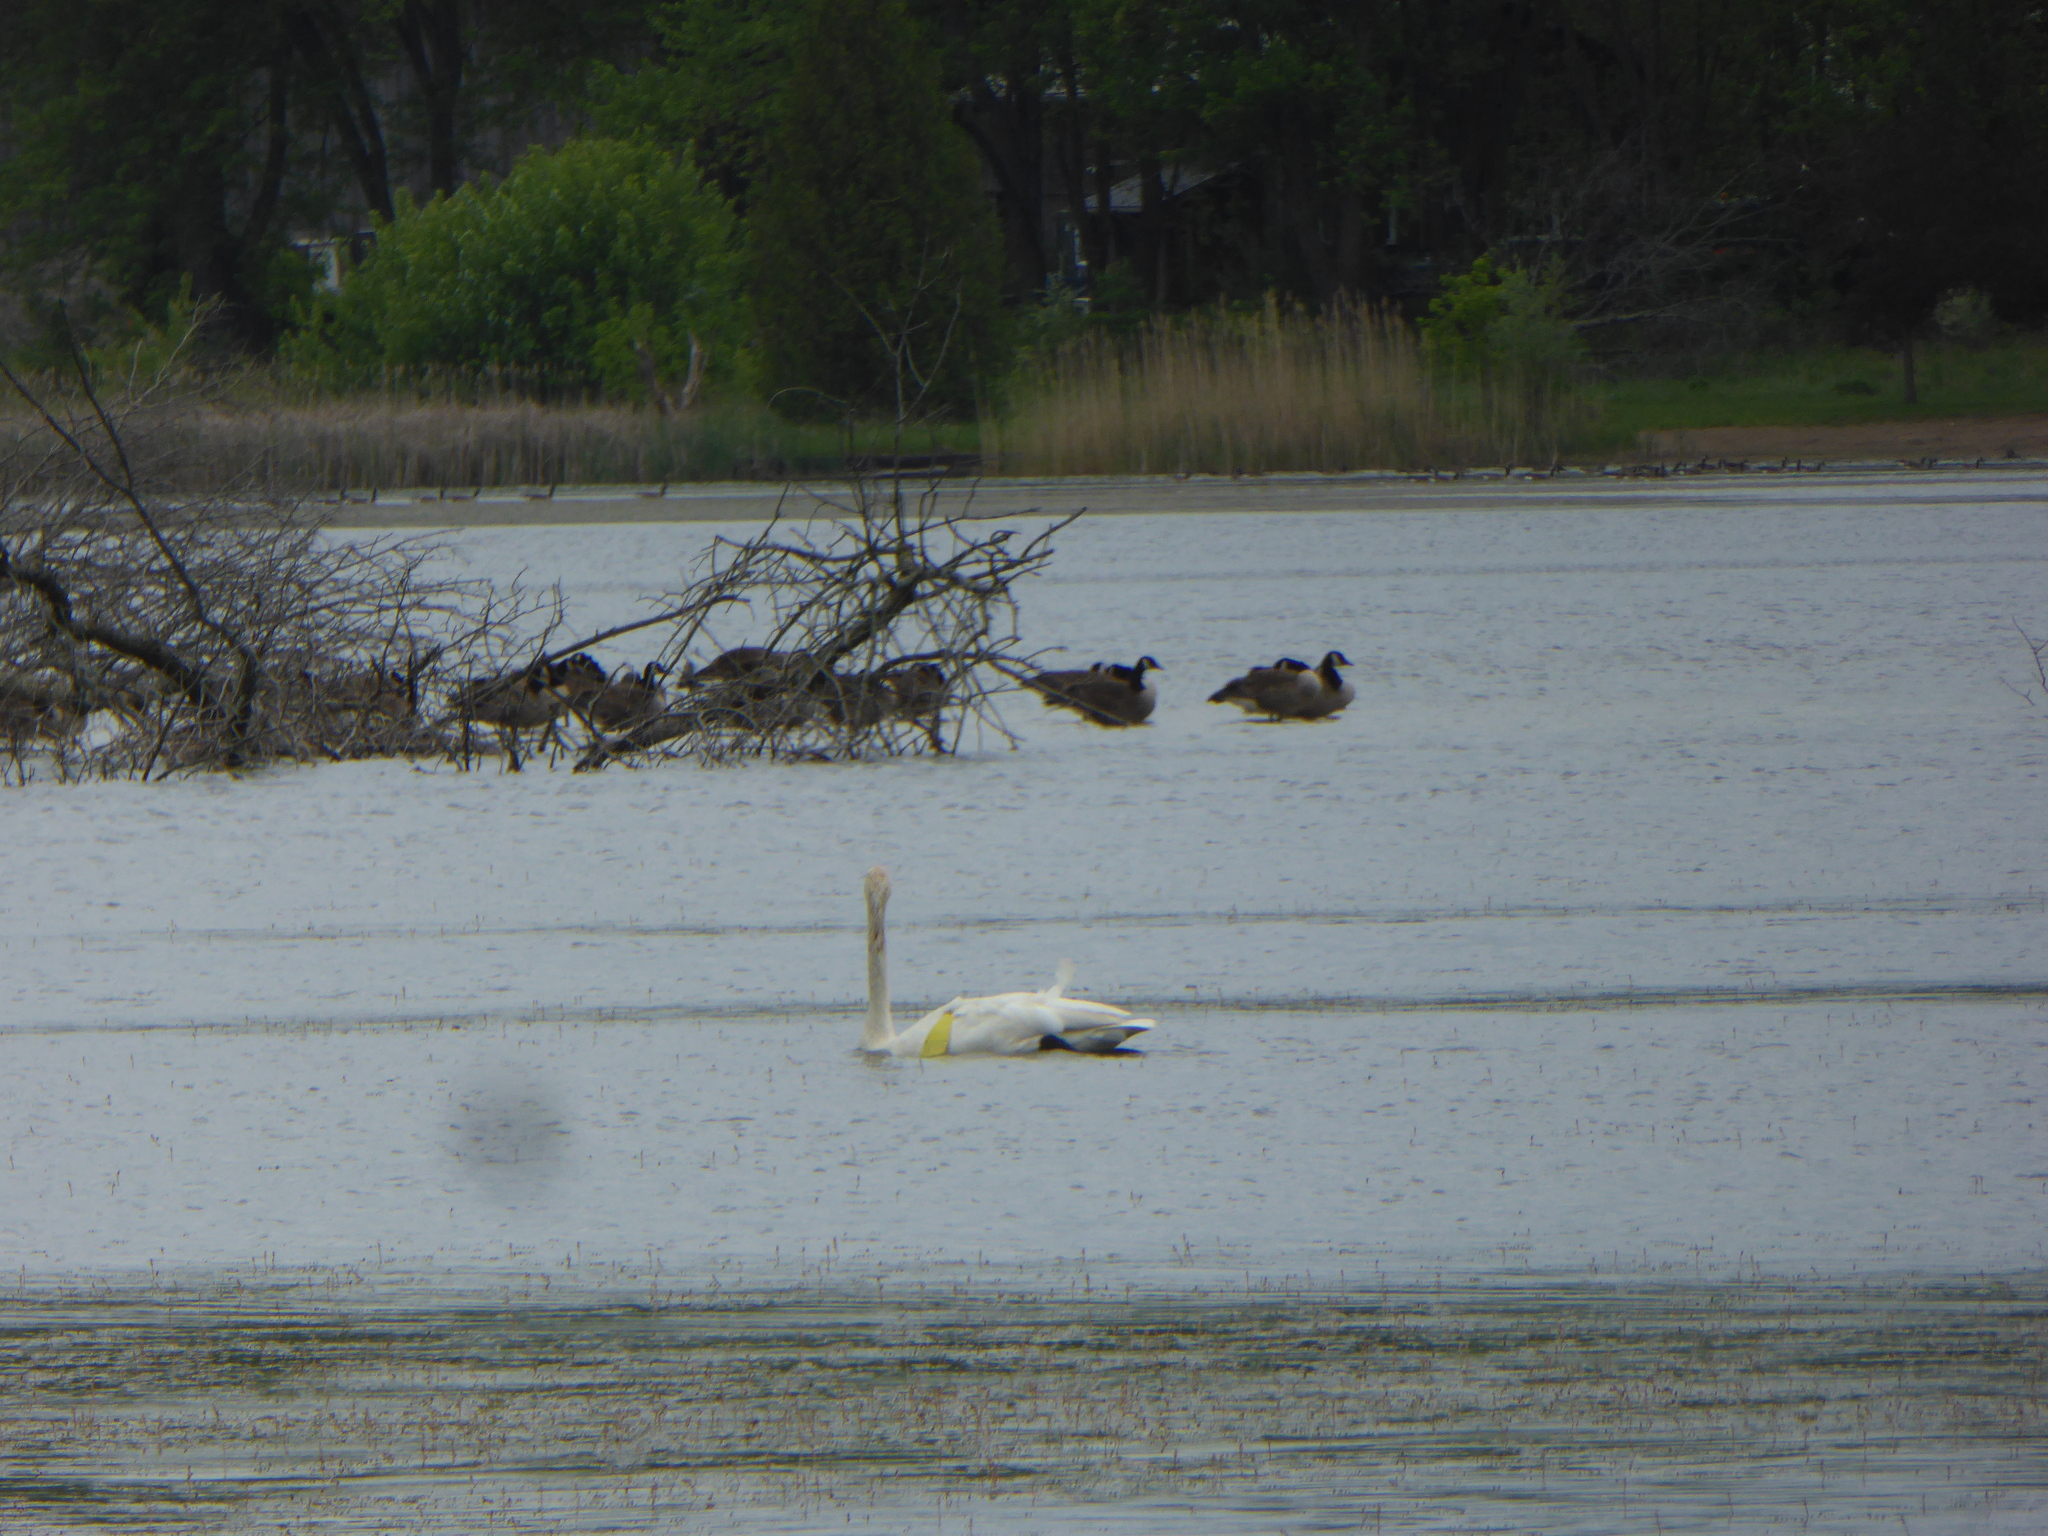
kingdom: Animalia
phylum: Chordata
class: Aves
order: Anseriformes
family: Anatidae
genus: Cygnus
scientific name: Cygnus buccinator
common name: Trumpeter swan
